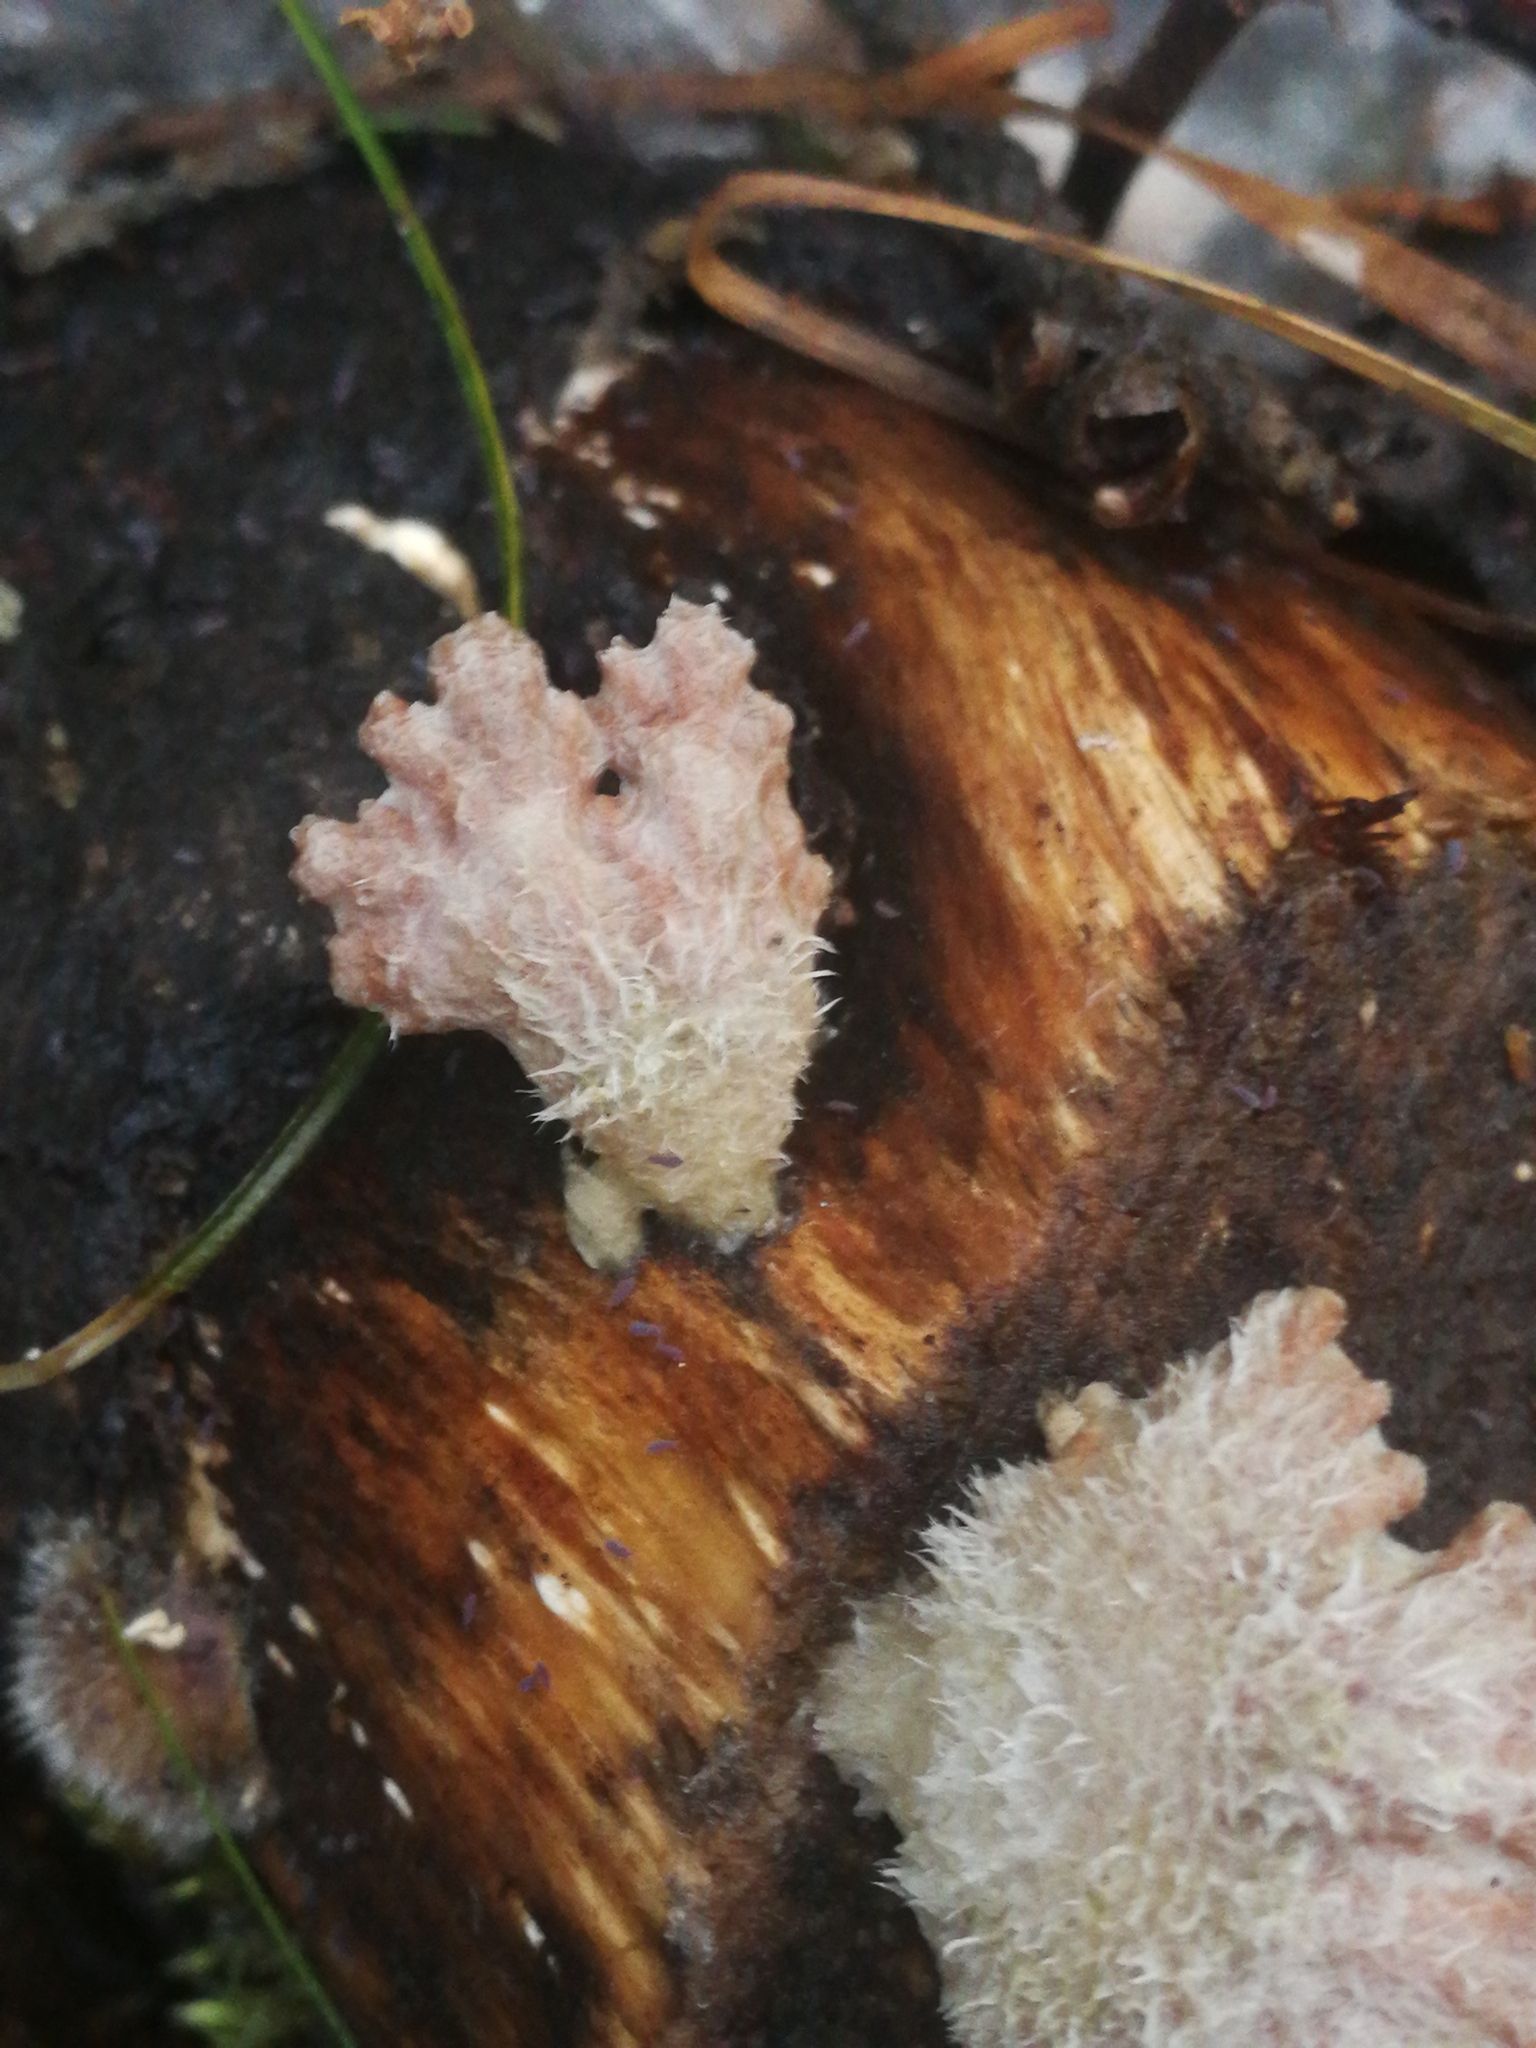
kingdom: Fungi
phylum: Basidiomycota
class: Agaricomycetes
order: Agaricales
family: Schizophyllaceae
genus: Schizophyllum
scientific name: Schizophyllum commune
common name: Common porecrust
